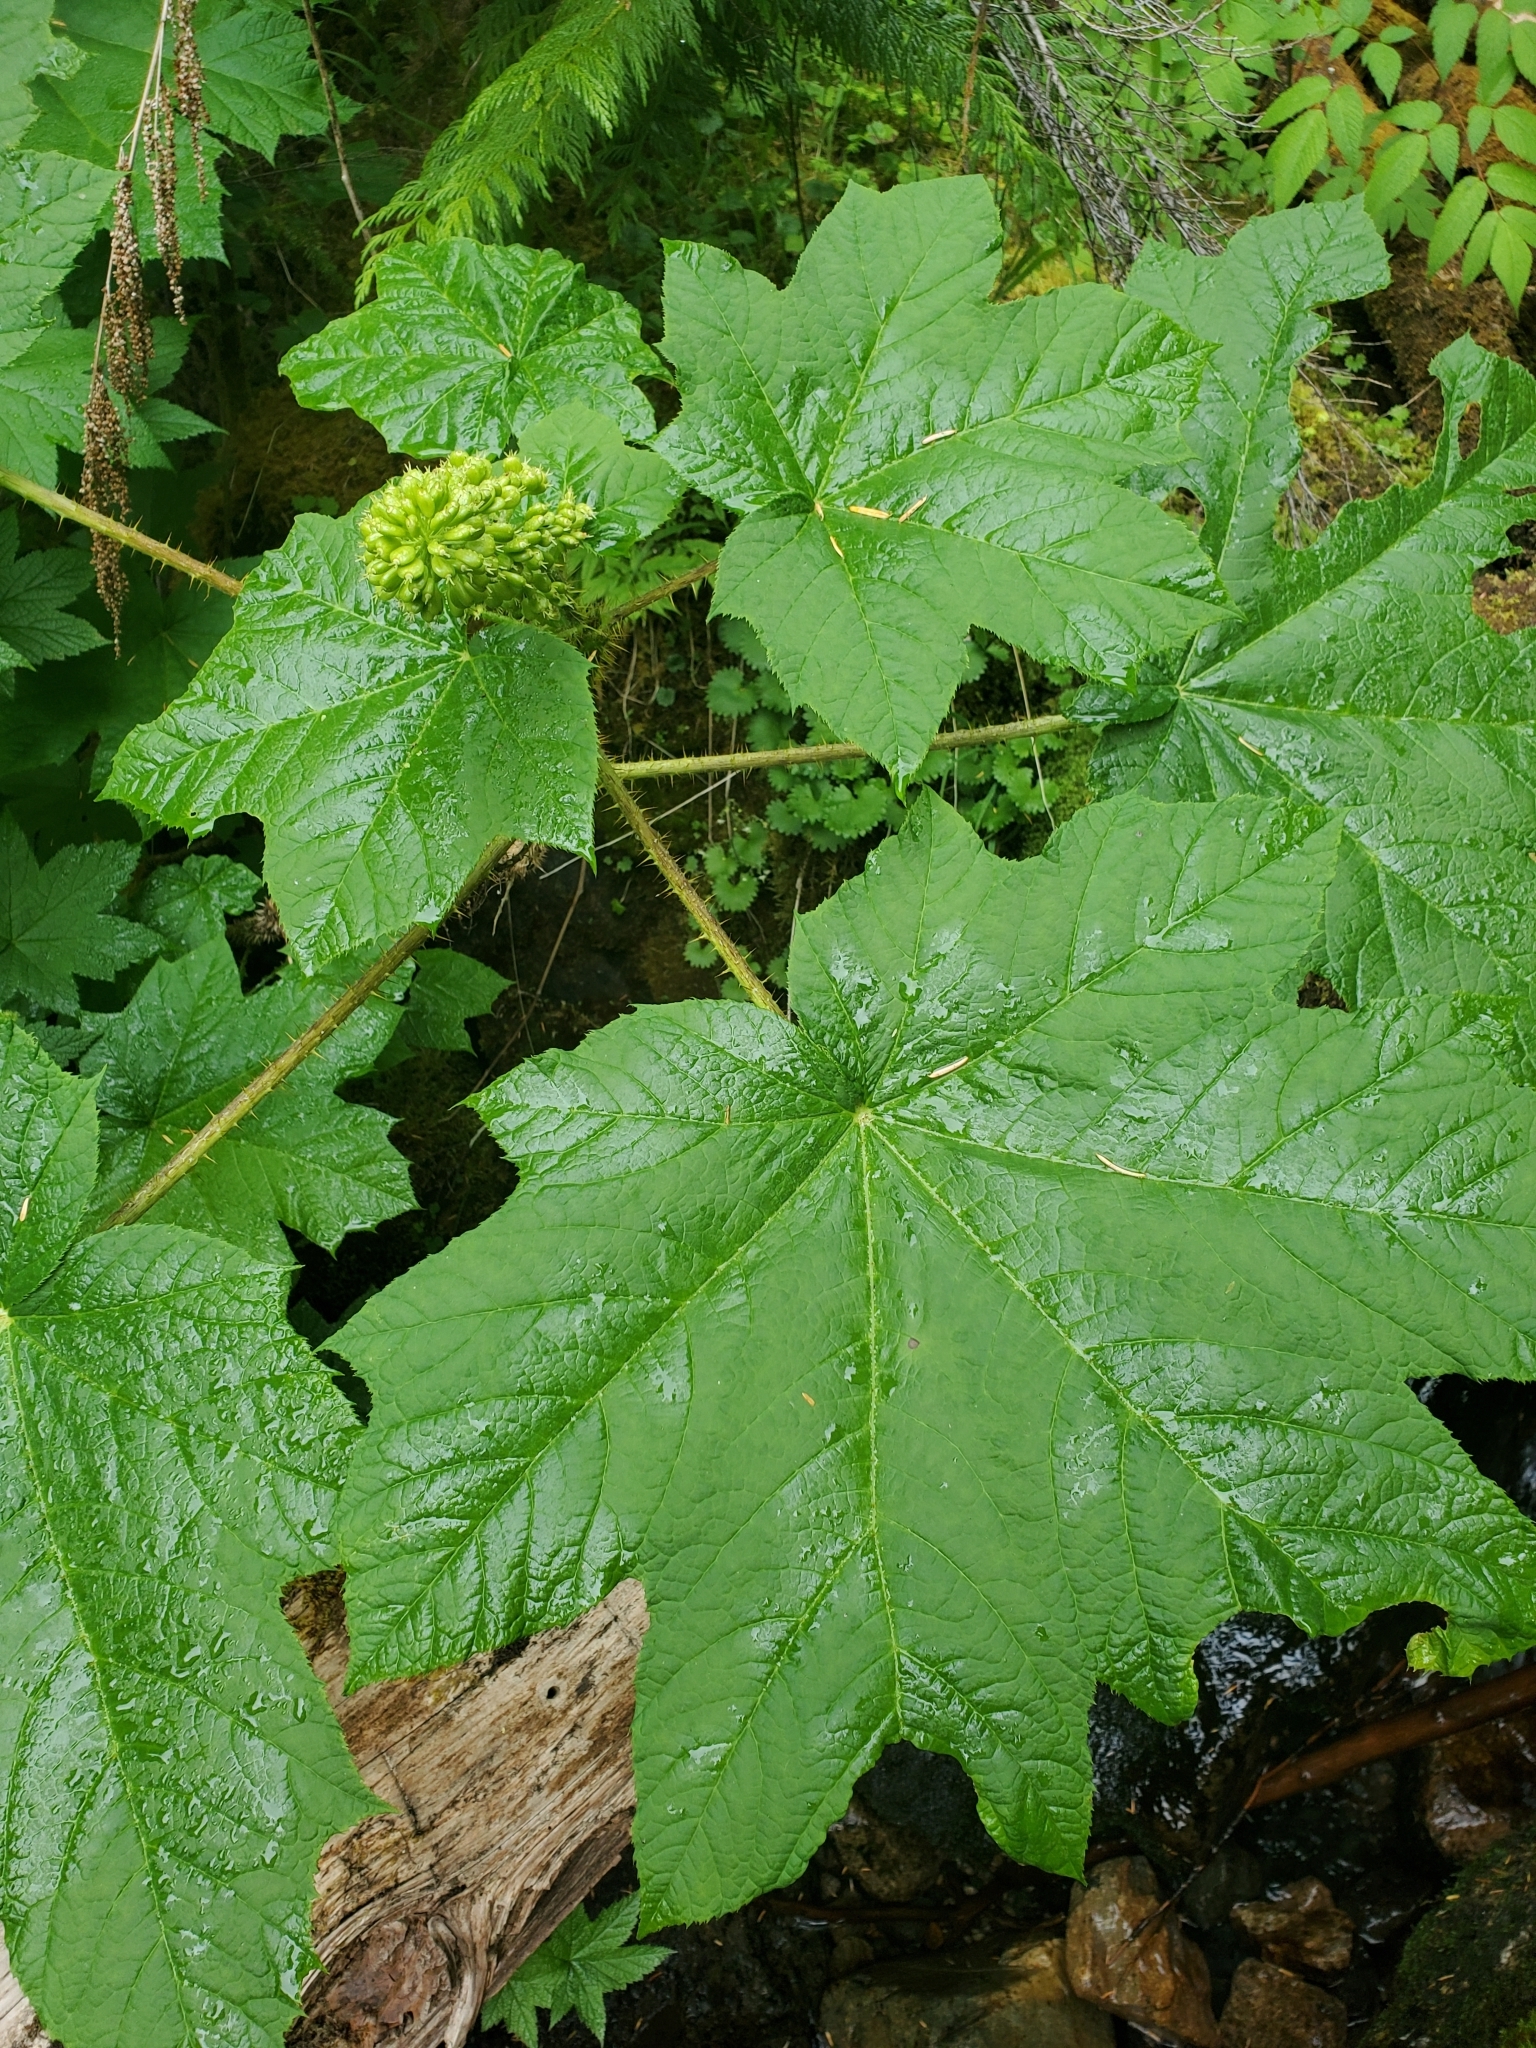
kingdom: Plantae
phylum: Tracheophyta
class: Magnoliopsida
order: Apiales
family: Araliaceae
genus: Oplopanax
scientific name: Oplopanax horridus
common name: Devil's walking-stick
